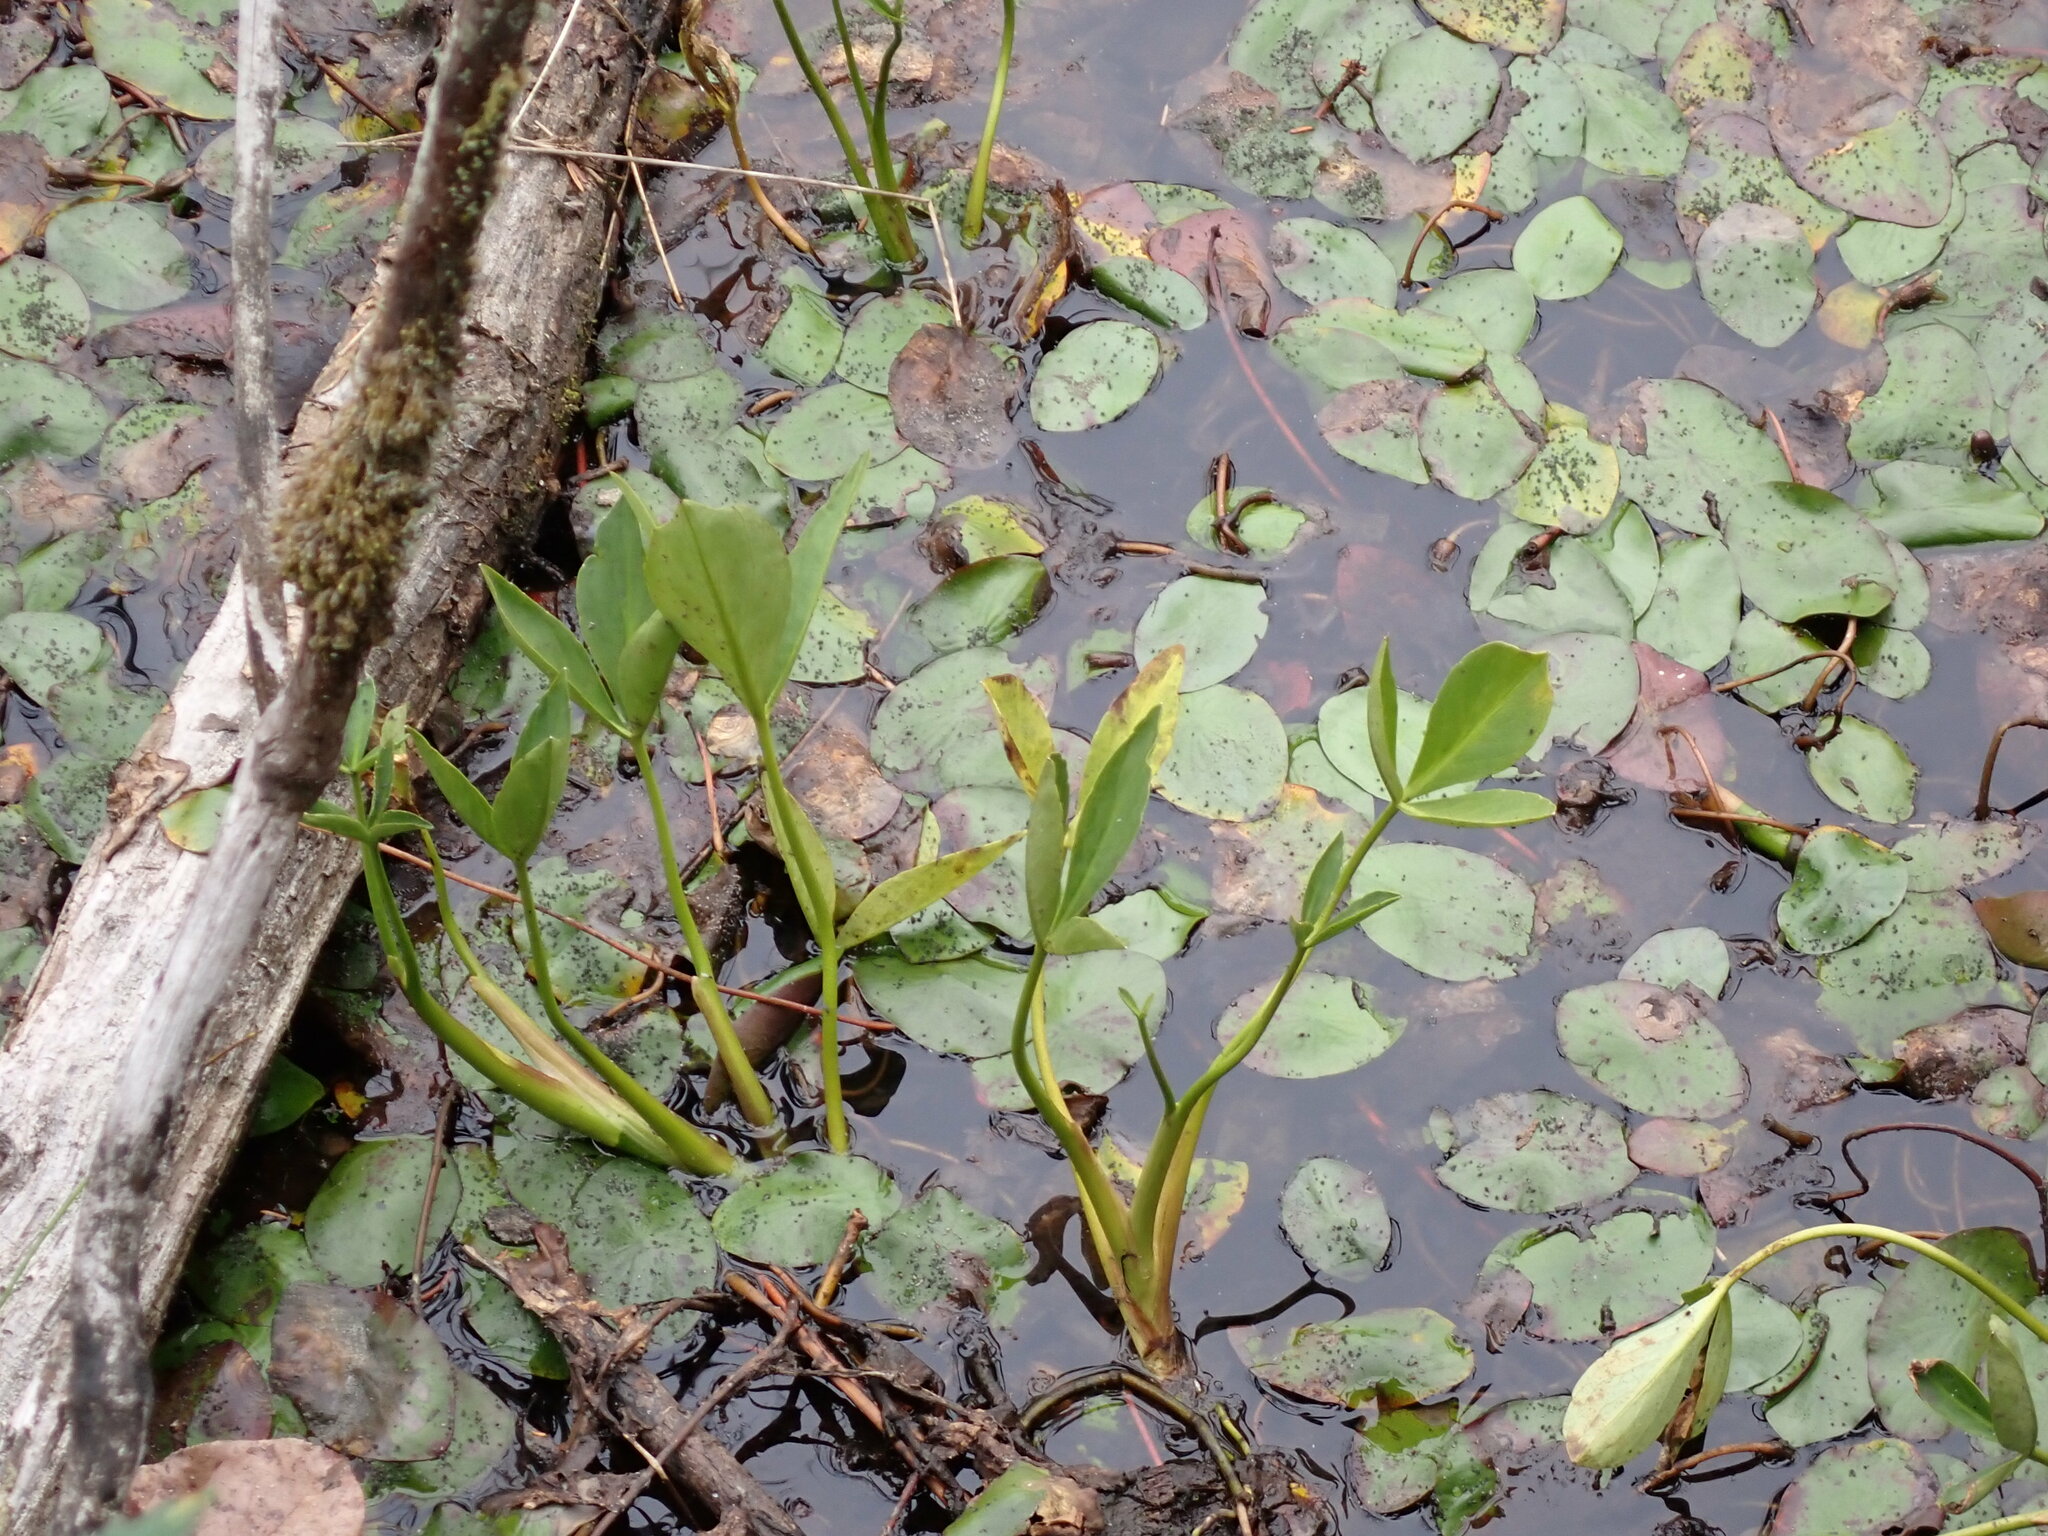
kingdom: Plantae
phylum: Tracheophyta
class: Magnoliopsida
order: Asterales
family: Menyanthaceae
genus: Menyanthes
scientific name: Menyanthes trifoliata
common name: Bogbean
